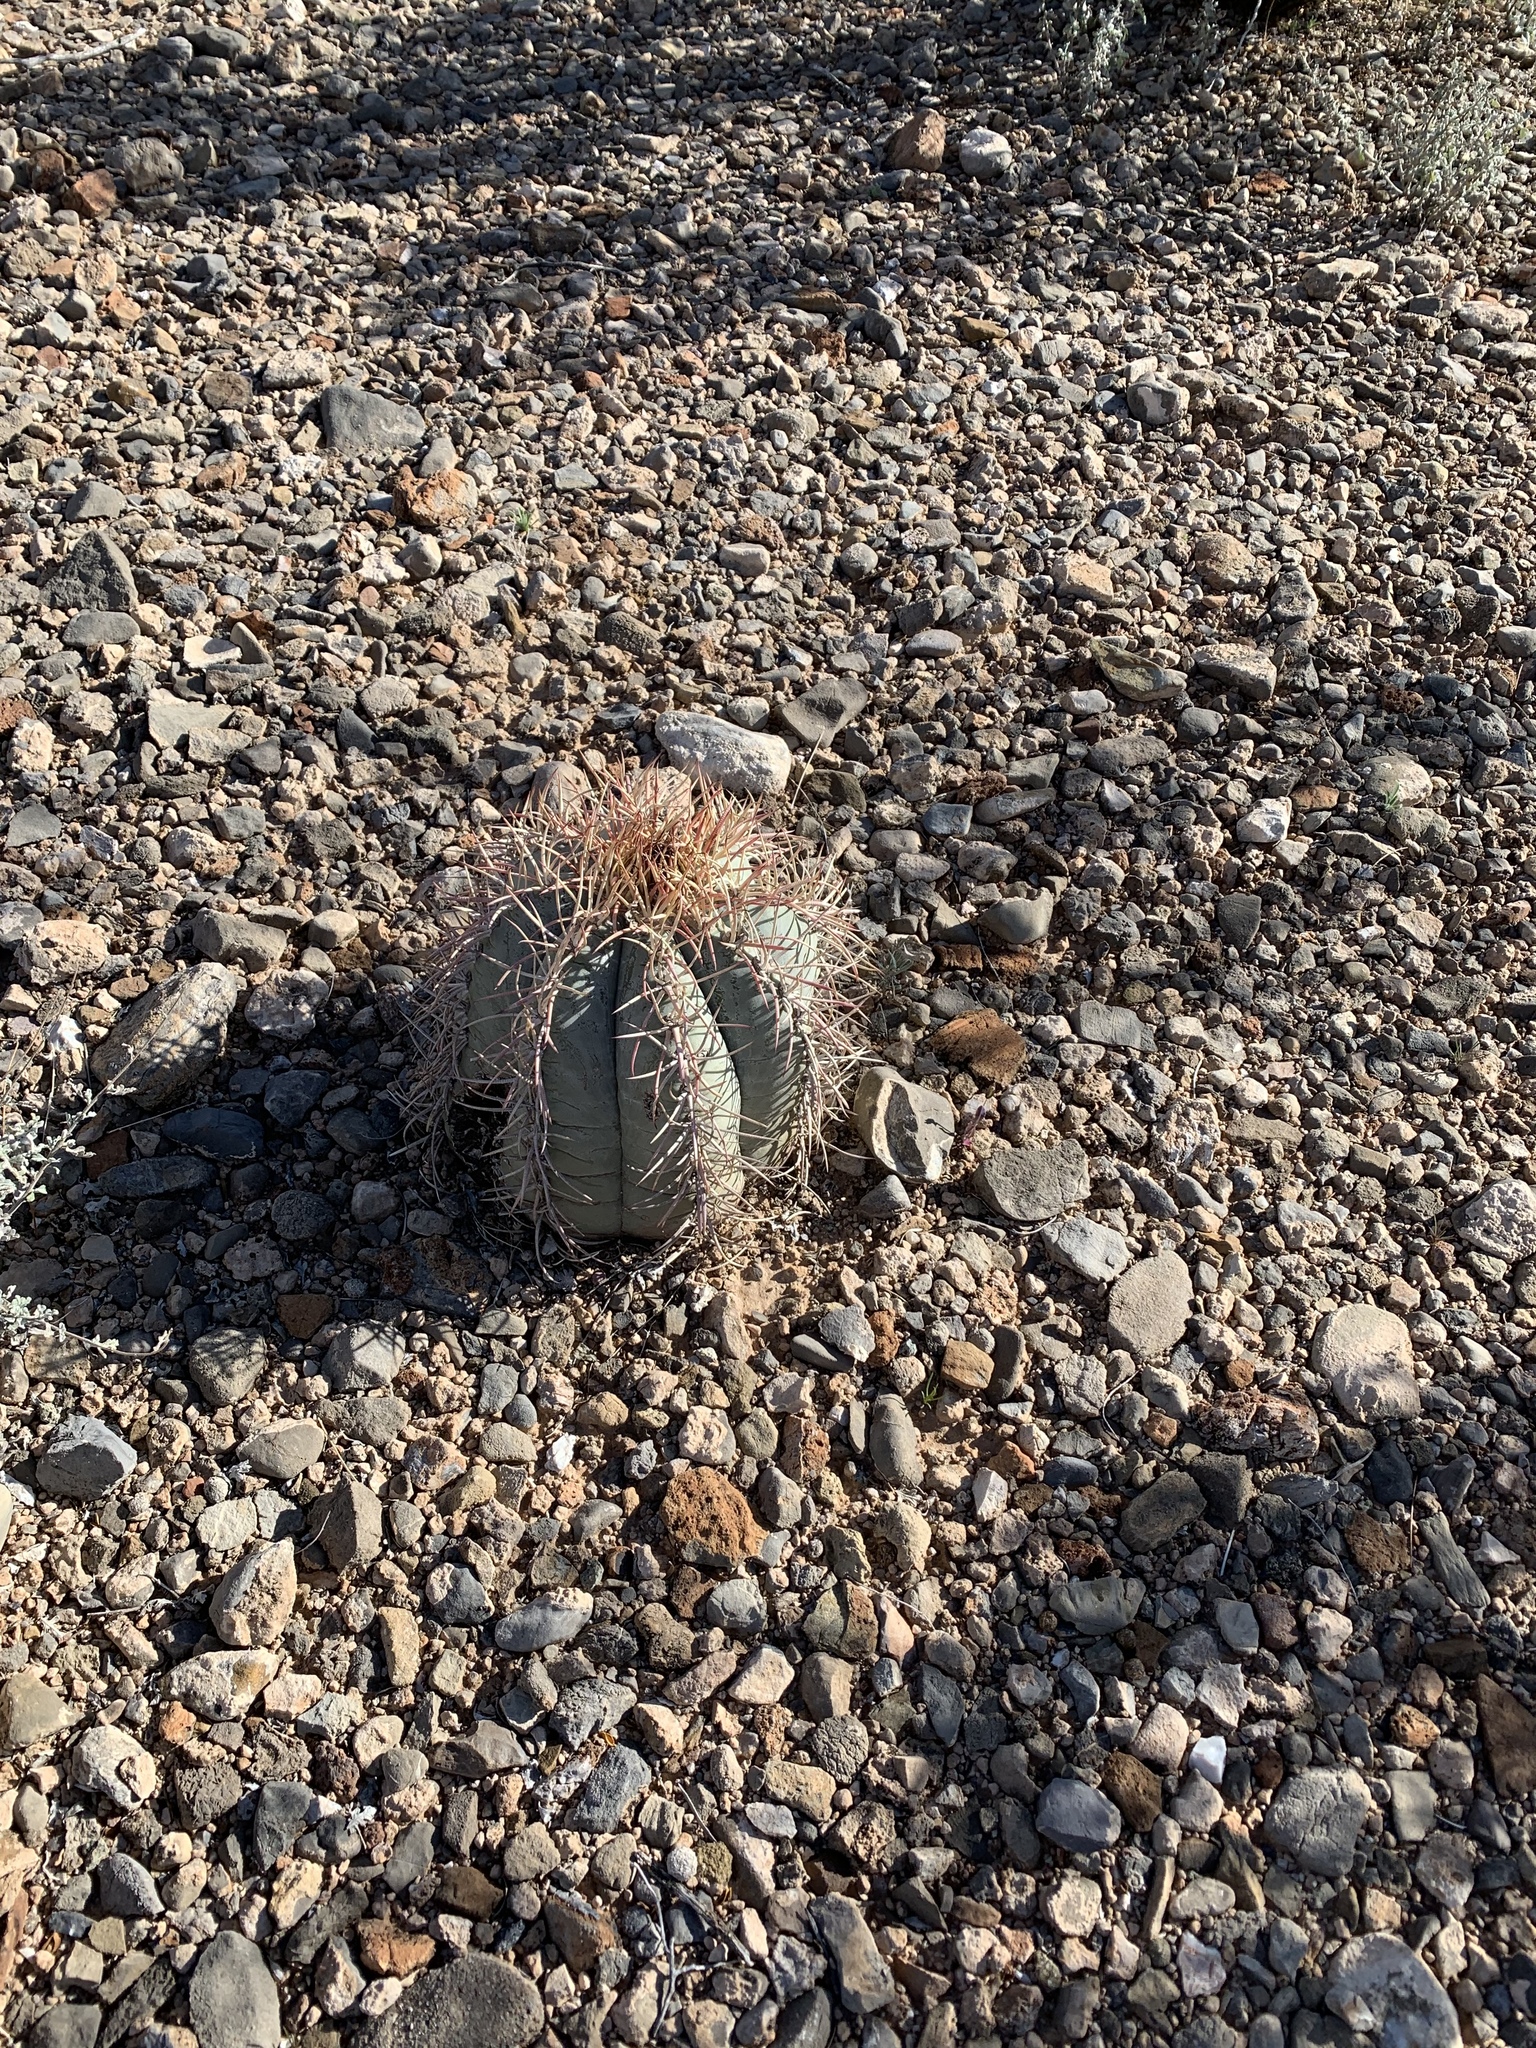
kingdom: Plantae
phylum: Tracheophyta
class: Magnoliopsida
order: Caryophyllales
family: Cactaceae
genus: Echinocactus
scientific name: Echinocactus horizonthalonius
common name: Devilshead
